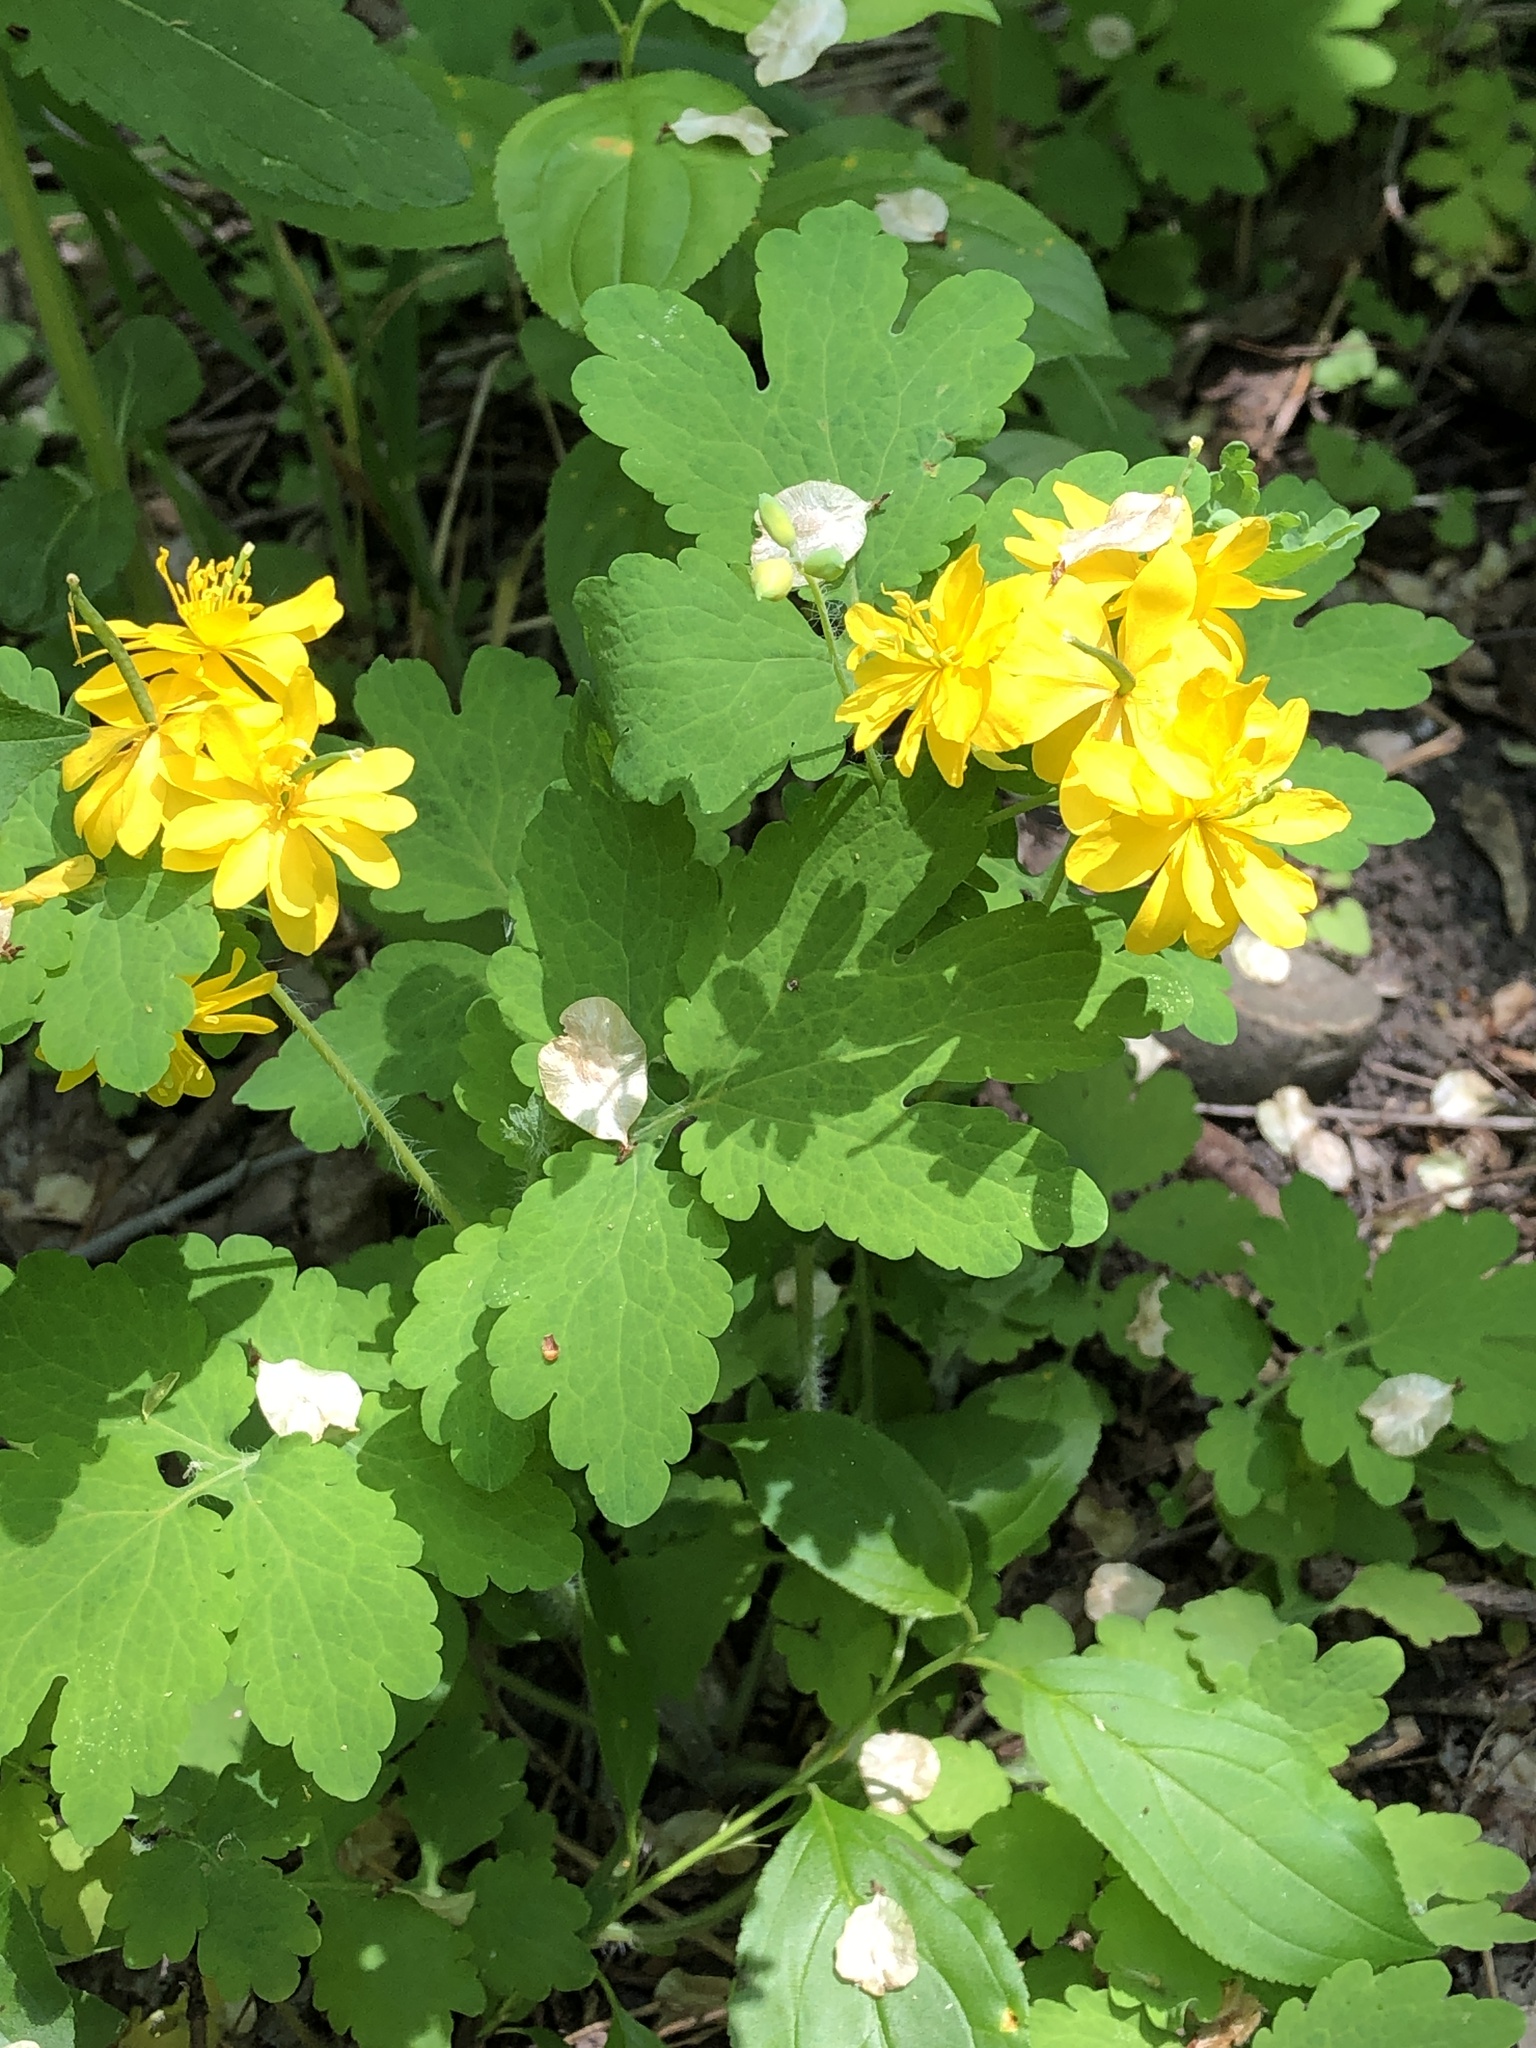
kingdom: Plantae
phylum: Tracheophyta
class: Magnoliopsida
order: Ranunculales
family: Papaveraceae
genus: Chelidonium
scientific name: Chelidonium majus
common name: Greater celandine
